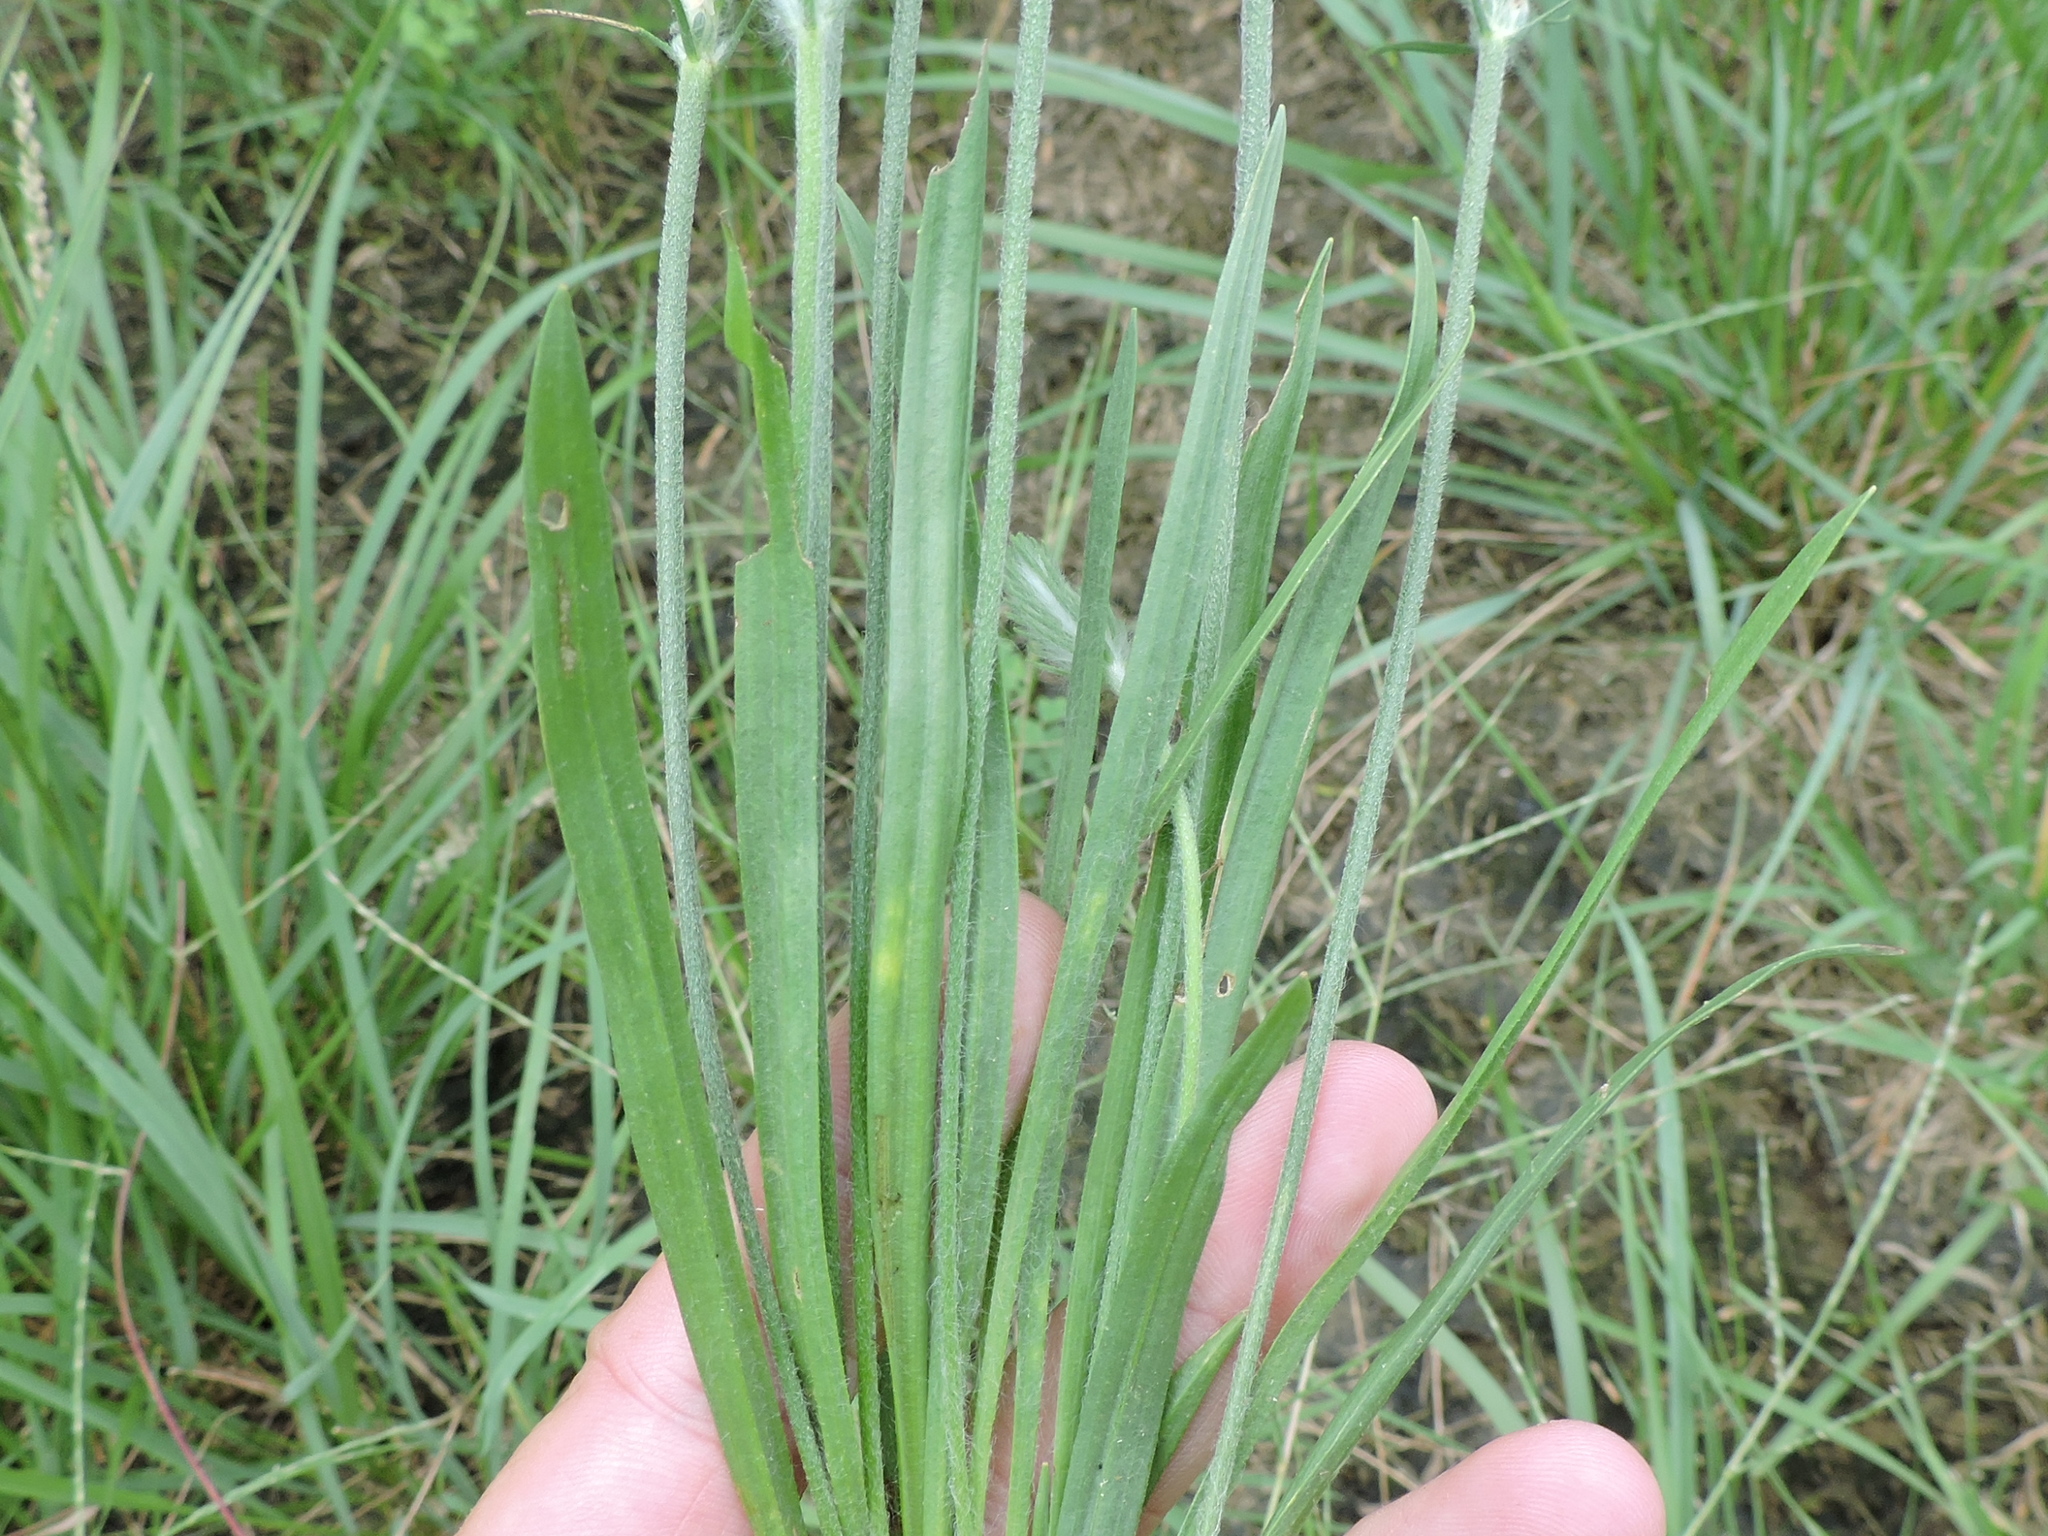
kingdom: Plantae
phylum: Tracheophyta
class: Magnoliopsida
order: Lamiales
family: Plantaginaceae
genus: Plantago
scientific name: Plantago aristata
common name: Bracted plantain
